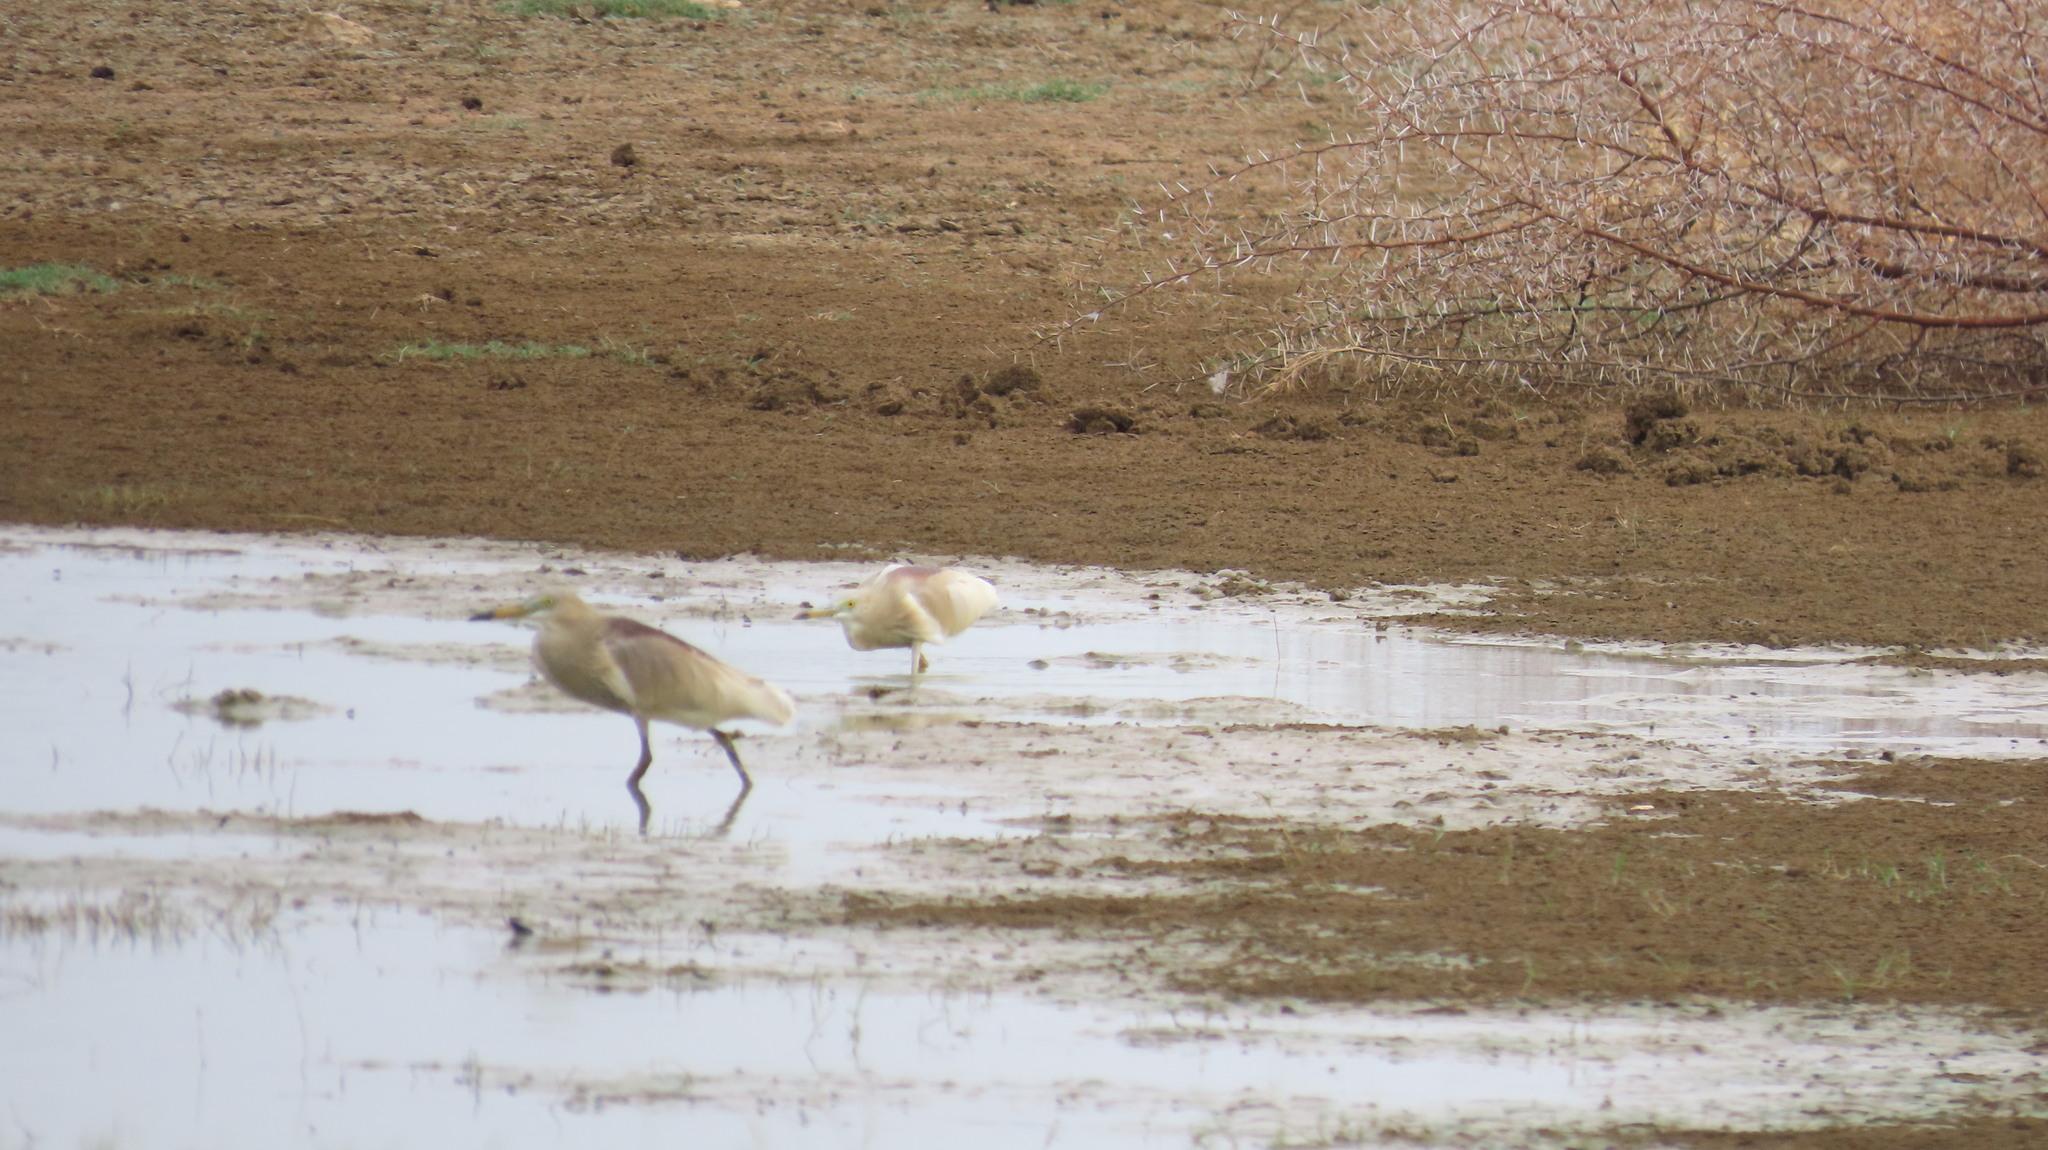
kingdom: Animalia
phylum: Chordata
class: Aves
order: Pelecaniformes
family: Ardeidae
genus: Ardeola
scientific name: Ardeola grayii
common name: Indian pond heron
